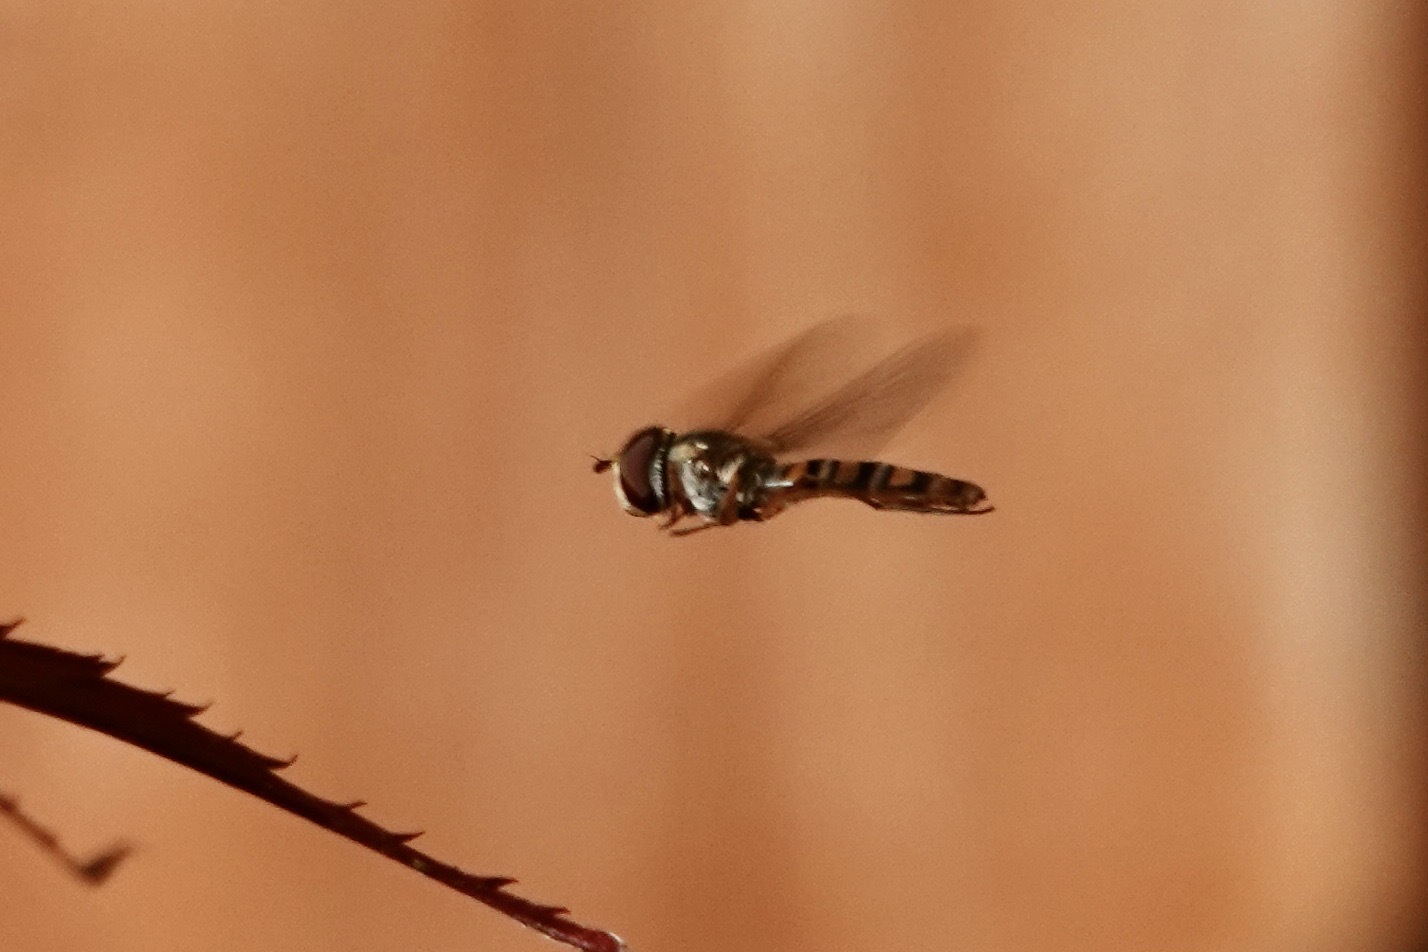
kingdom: Animalia
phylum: Arthropoda
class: Insecta
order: Diptera
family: Syrphidae
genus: Episyrphus
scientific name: Episyrphus balteatus
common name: Marmalade hoverfly
